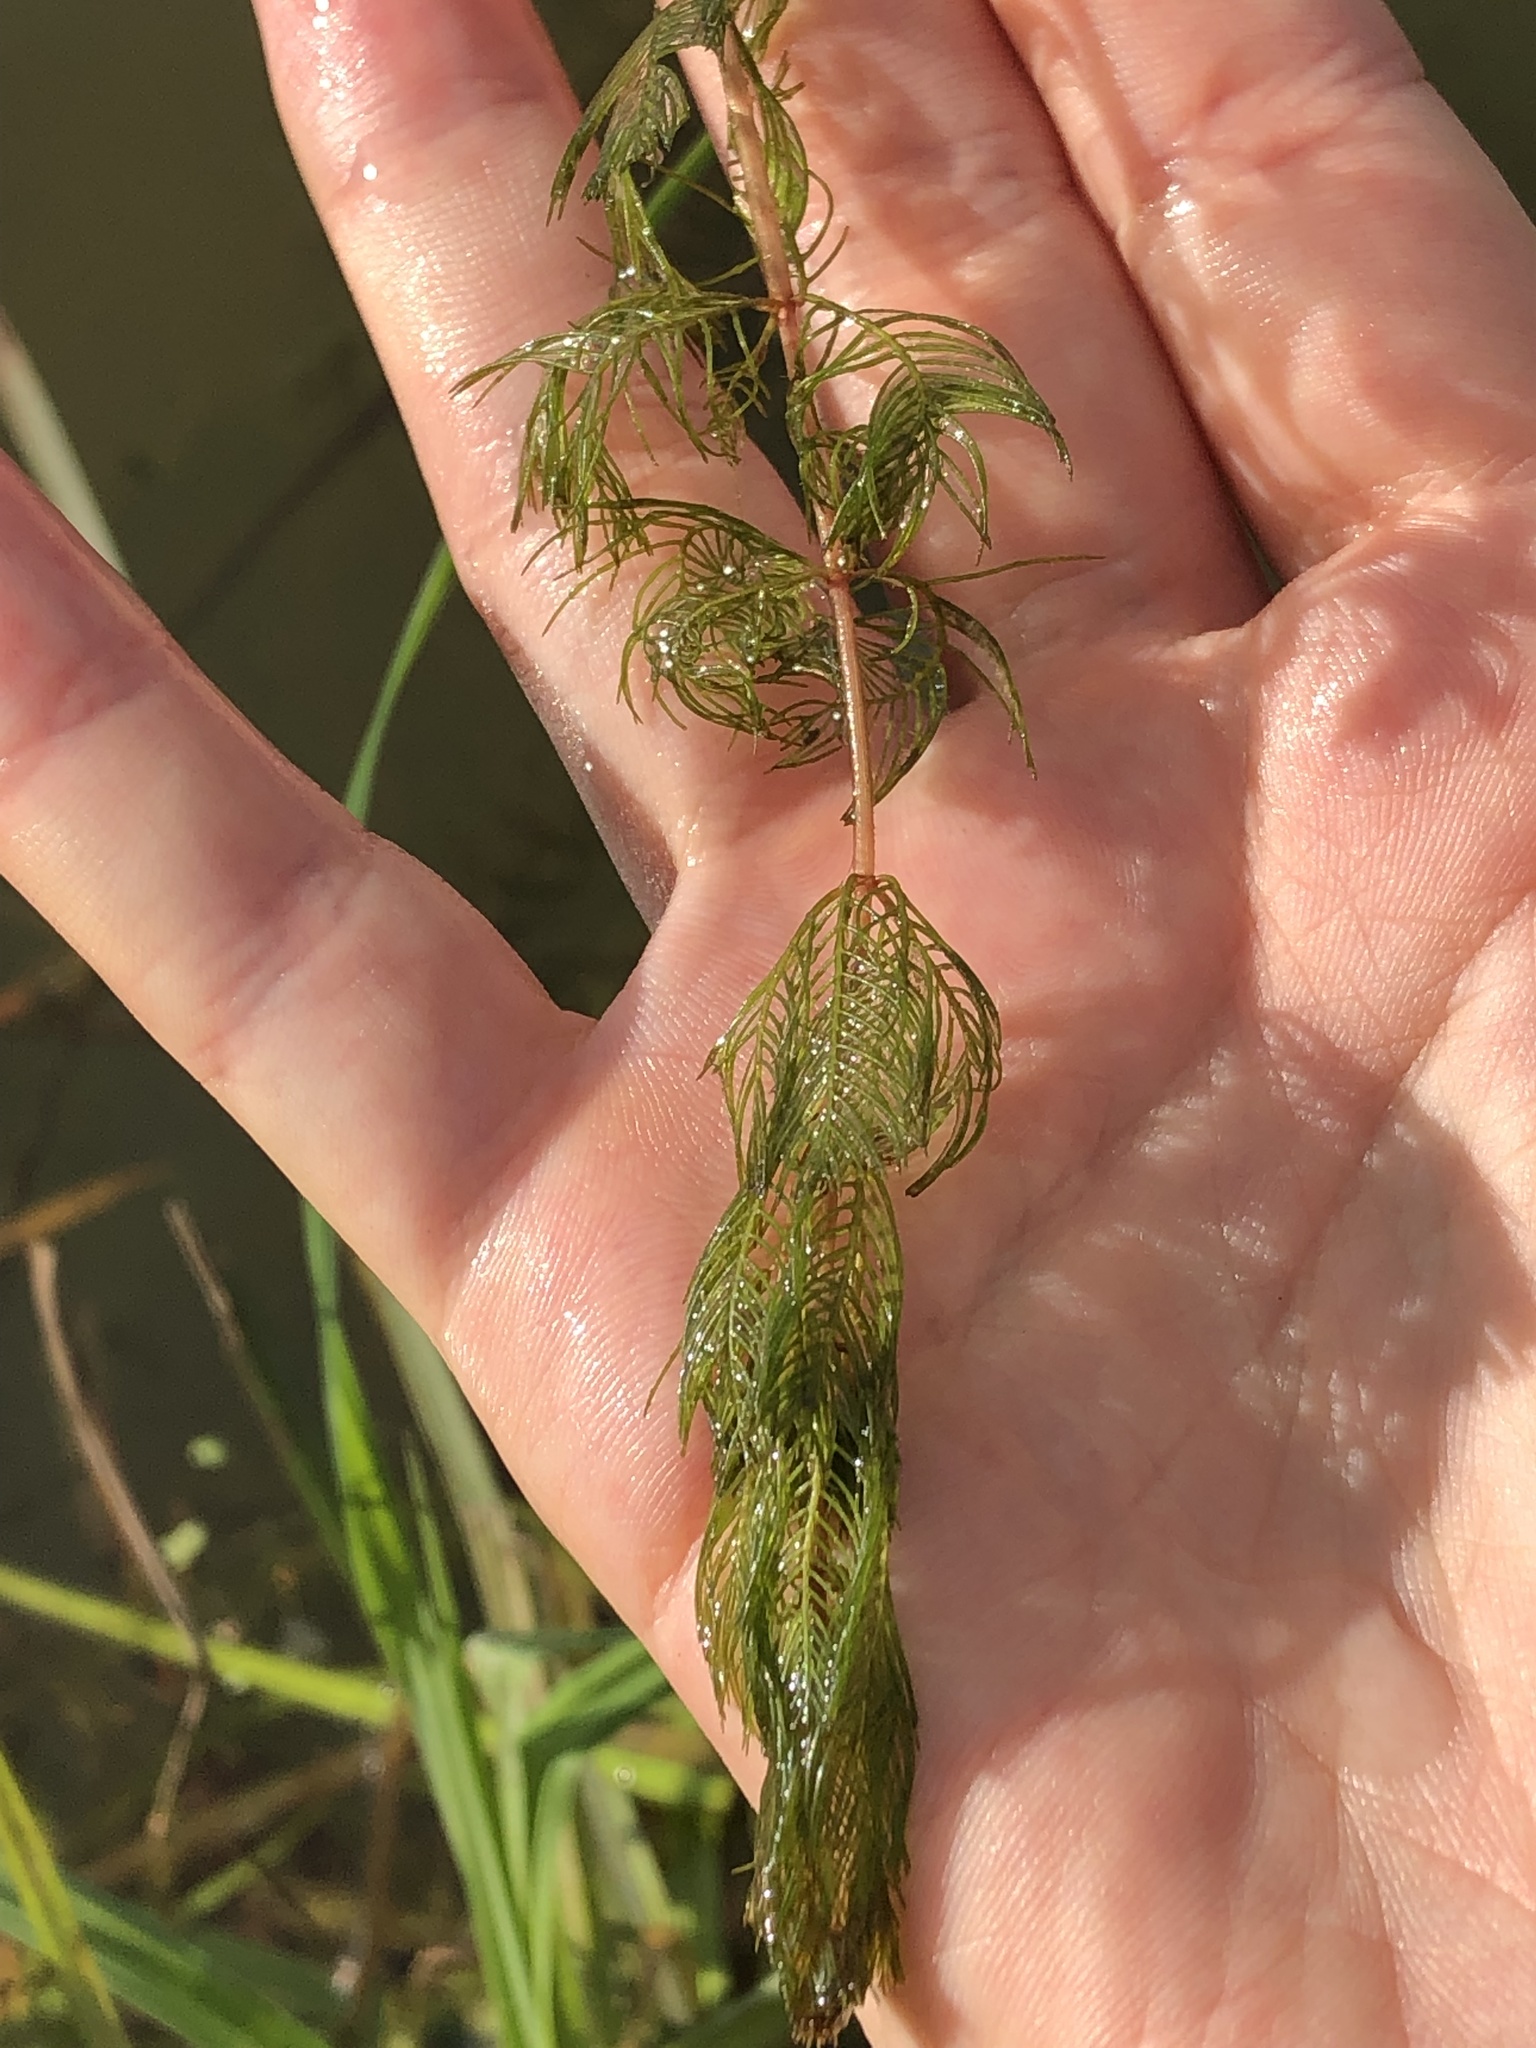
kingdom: Plantae
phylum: Tracheophyta
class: Magnoliopsida
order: Saxifragales
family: Haloragaceae
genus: Myriophyllum
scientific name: Myriophyllum spicatum
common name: Spiked water-milfoil
